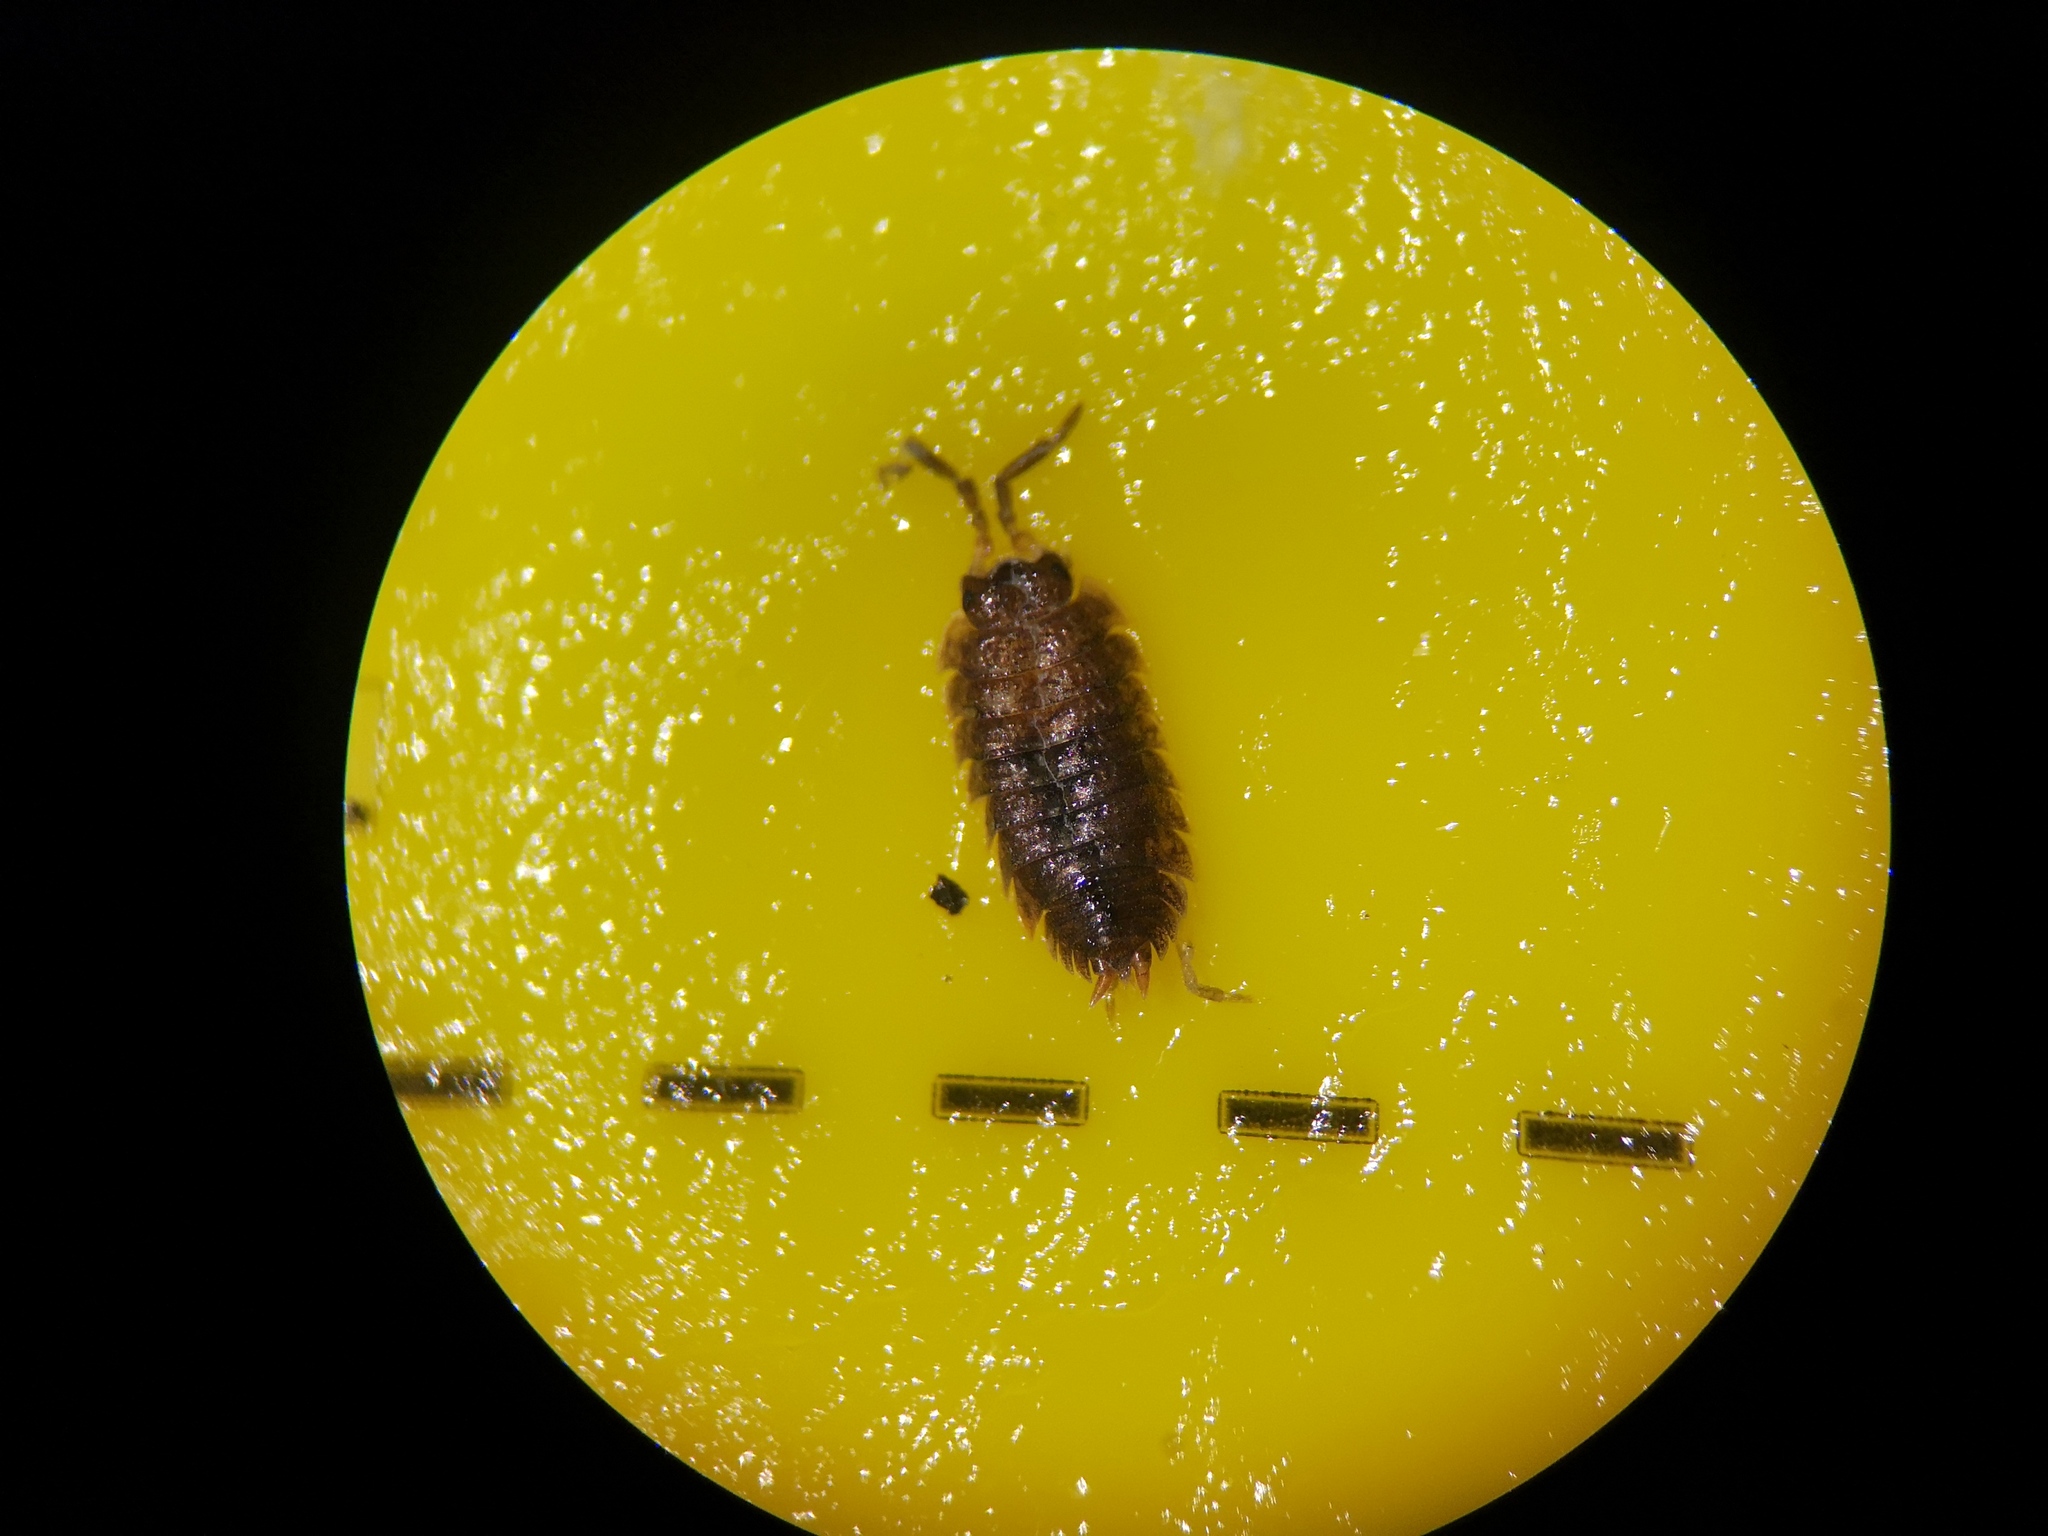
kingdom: Animalia
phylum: Arthropoda
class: Malacostraca
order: Isopoda
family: Porcellionidae
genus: Porcellio
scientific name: Porcellio scaber
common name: Common rough woodlouse
